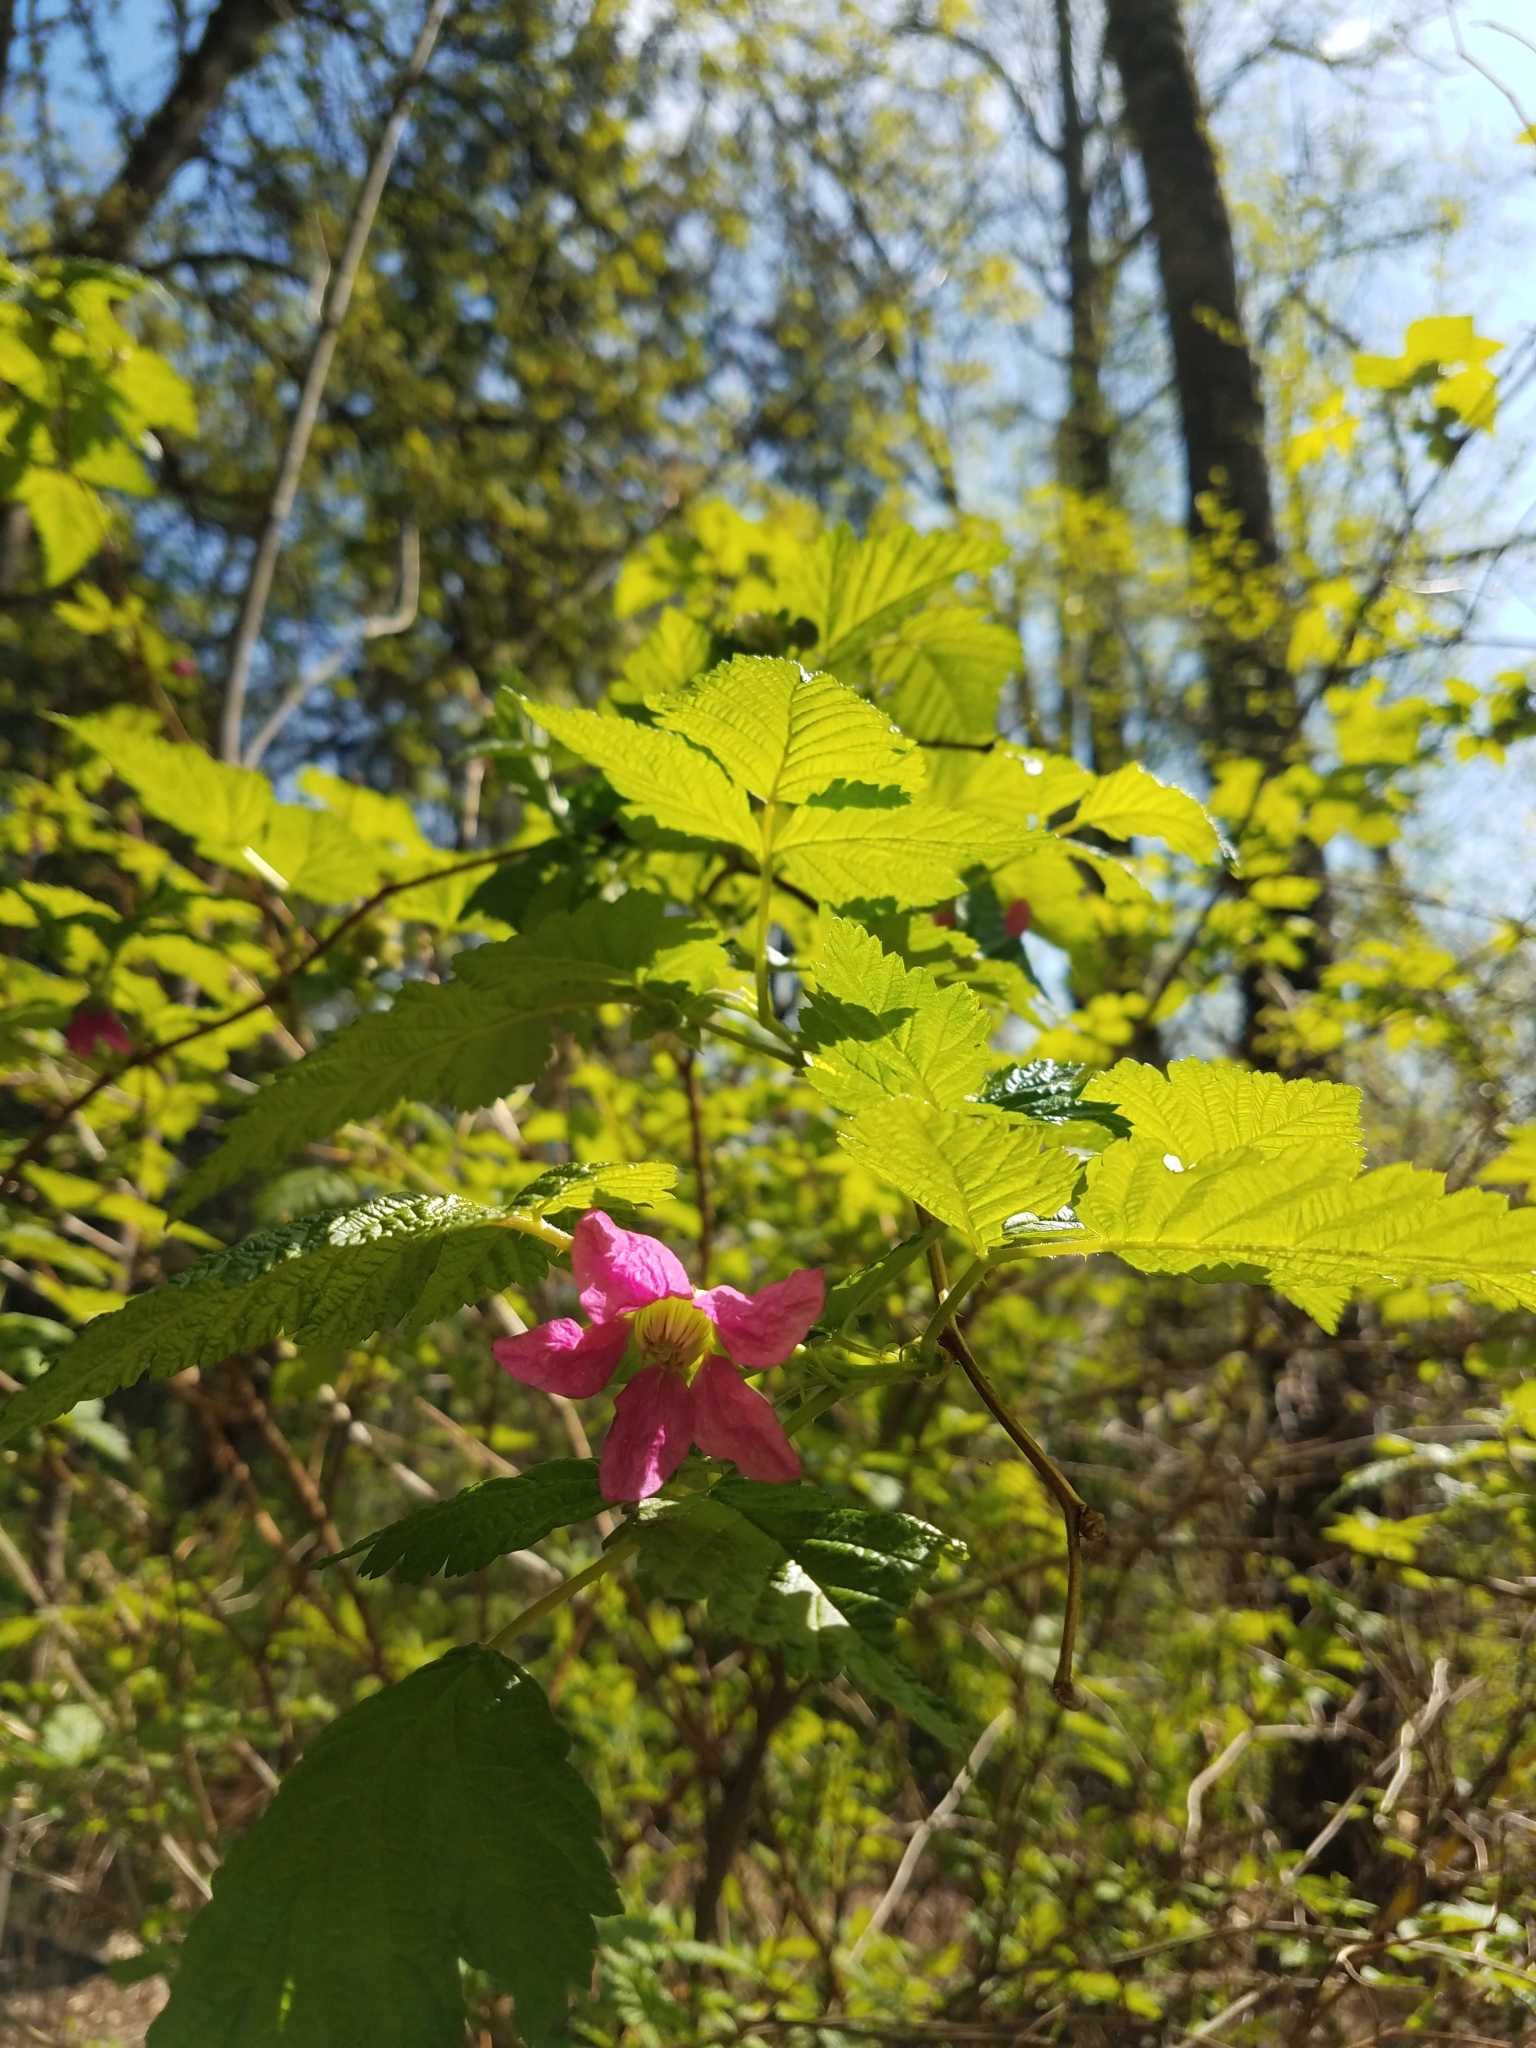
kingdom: Plantae
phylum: Tracheophyta
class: Magnoliopsida
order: Rosales
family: Rosaceae
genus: Rubus
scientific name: Rubus spectabilis
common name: Salmonberry
